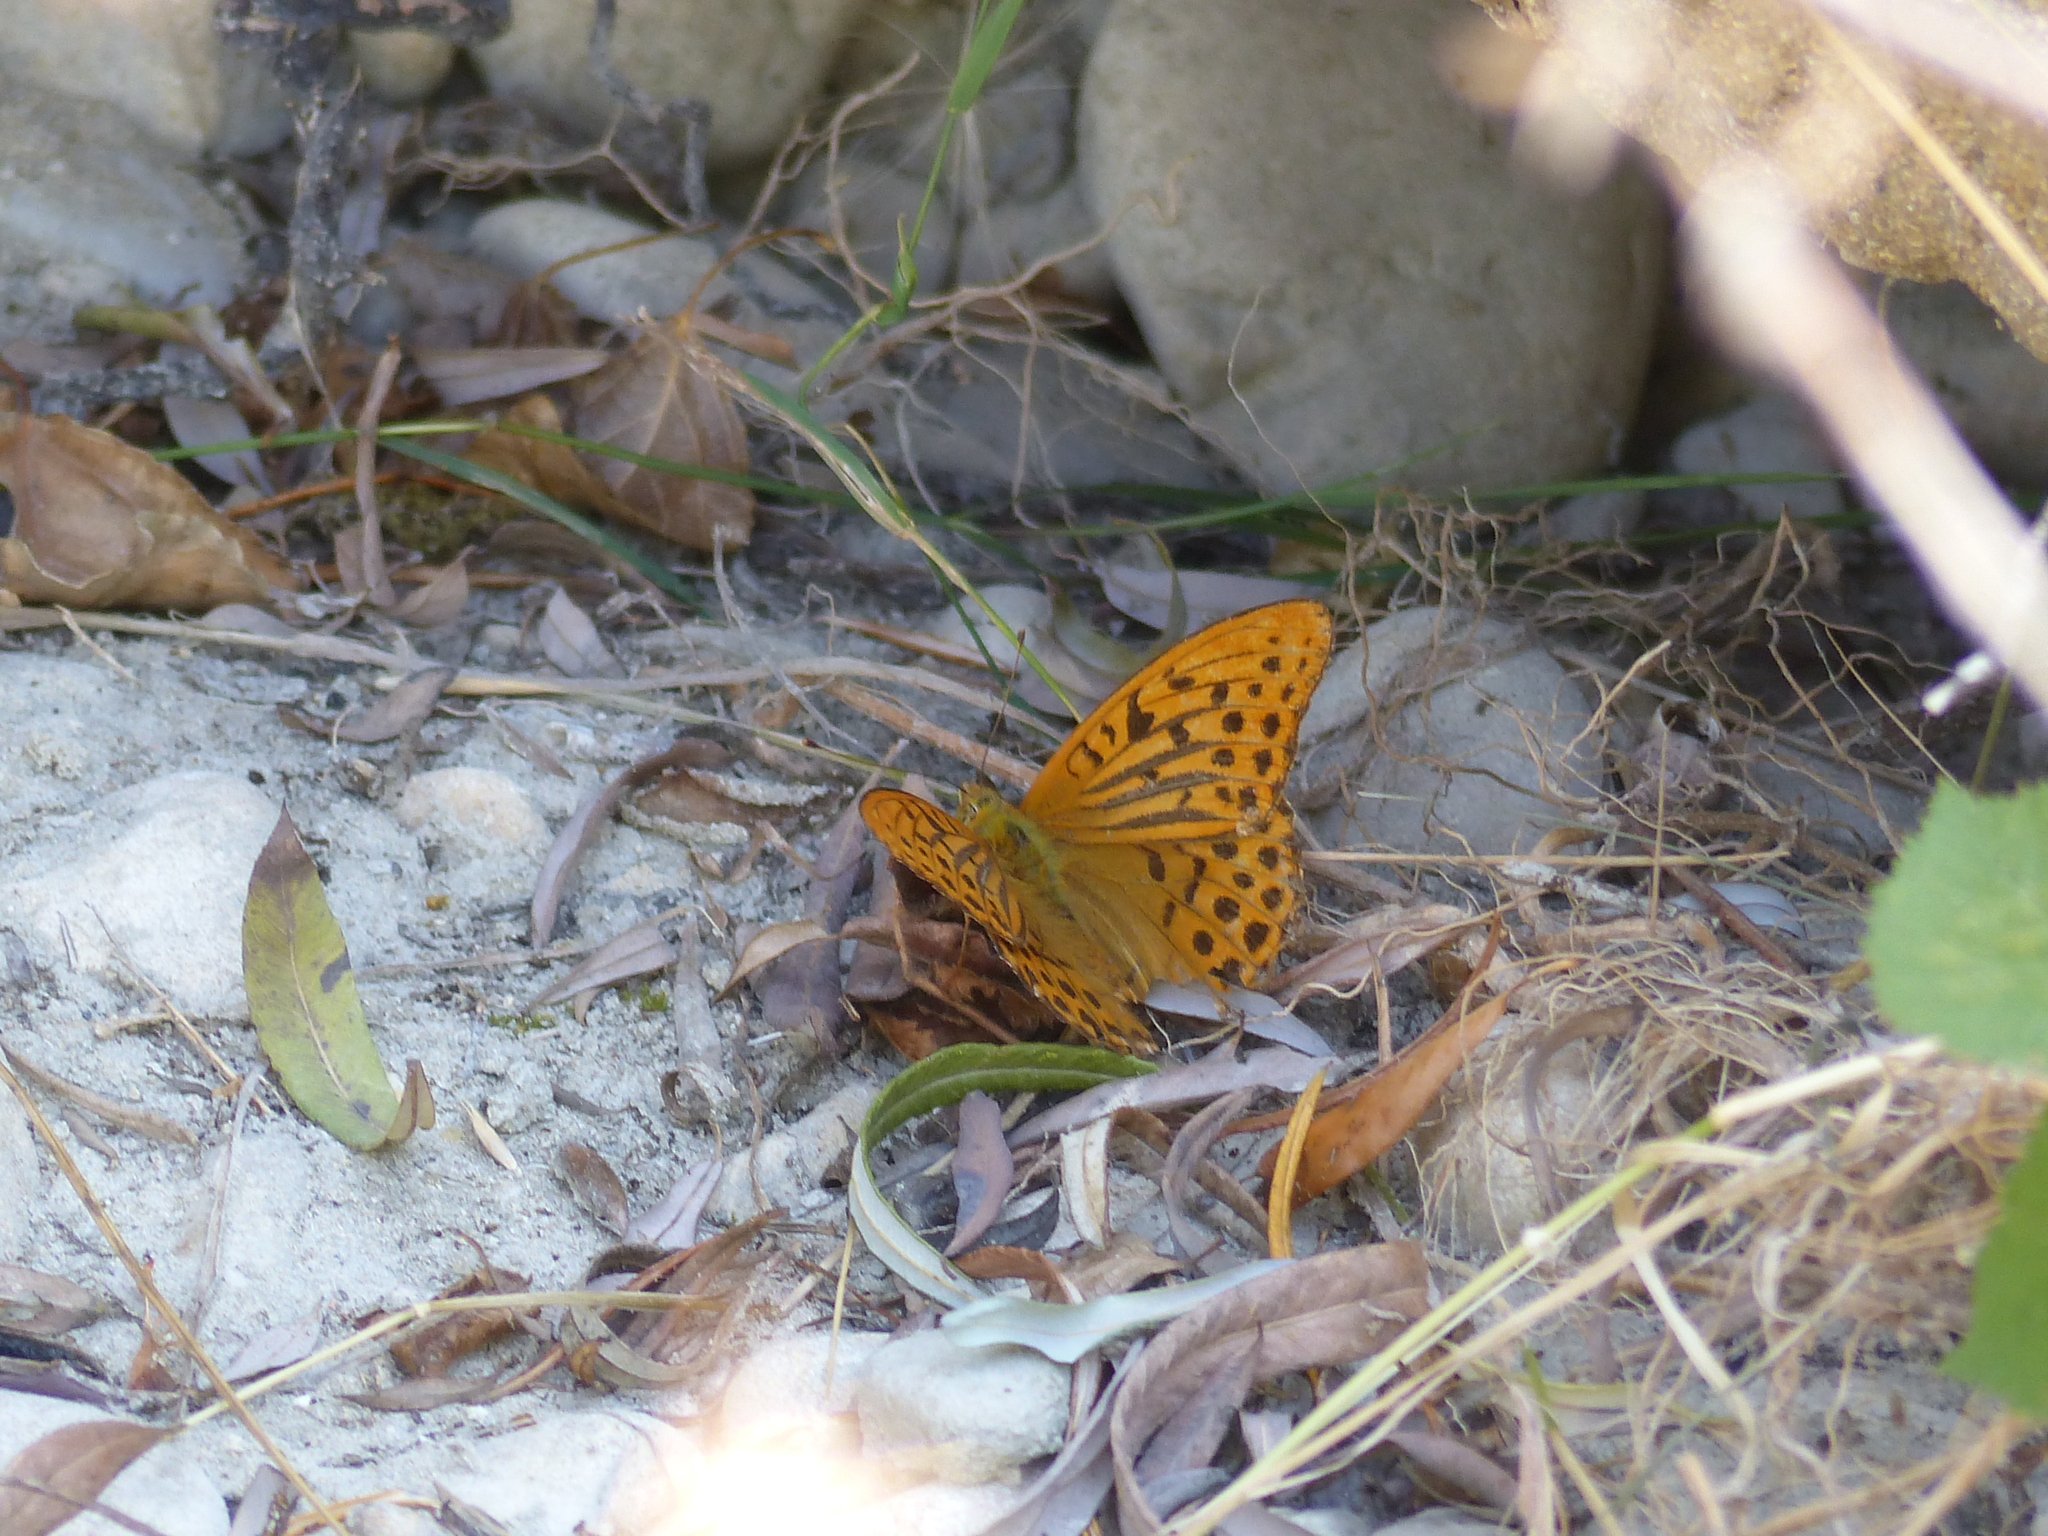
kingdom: Animalia
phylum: Arthropoda
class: Insecta
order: Lepidoptera
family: Nymphalidae
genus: Argynnis
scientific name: Argynnis paphia
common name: Silver-washed fritillary
